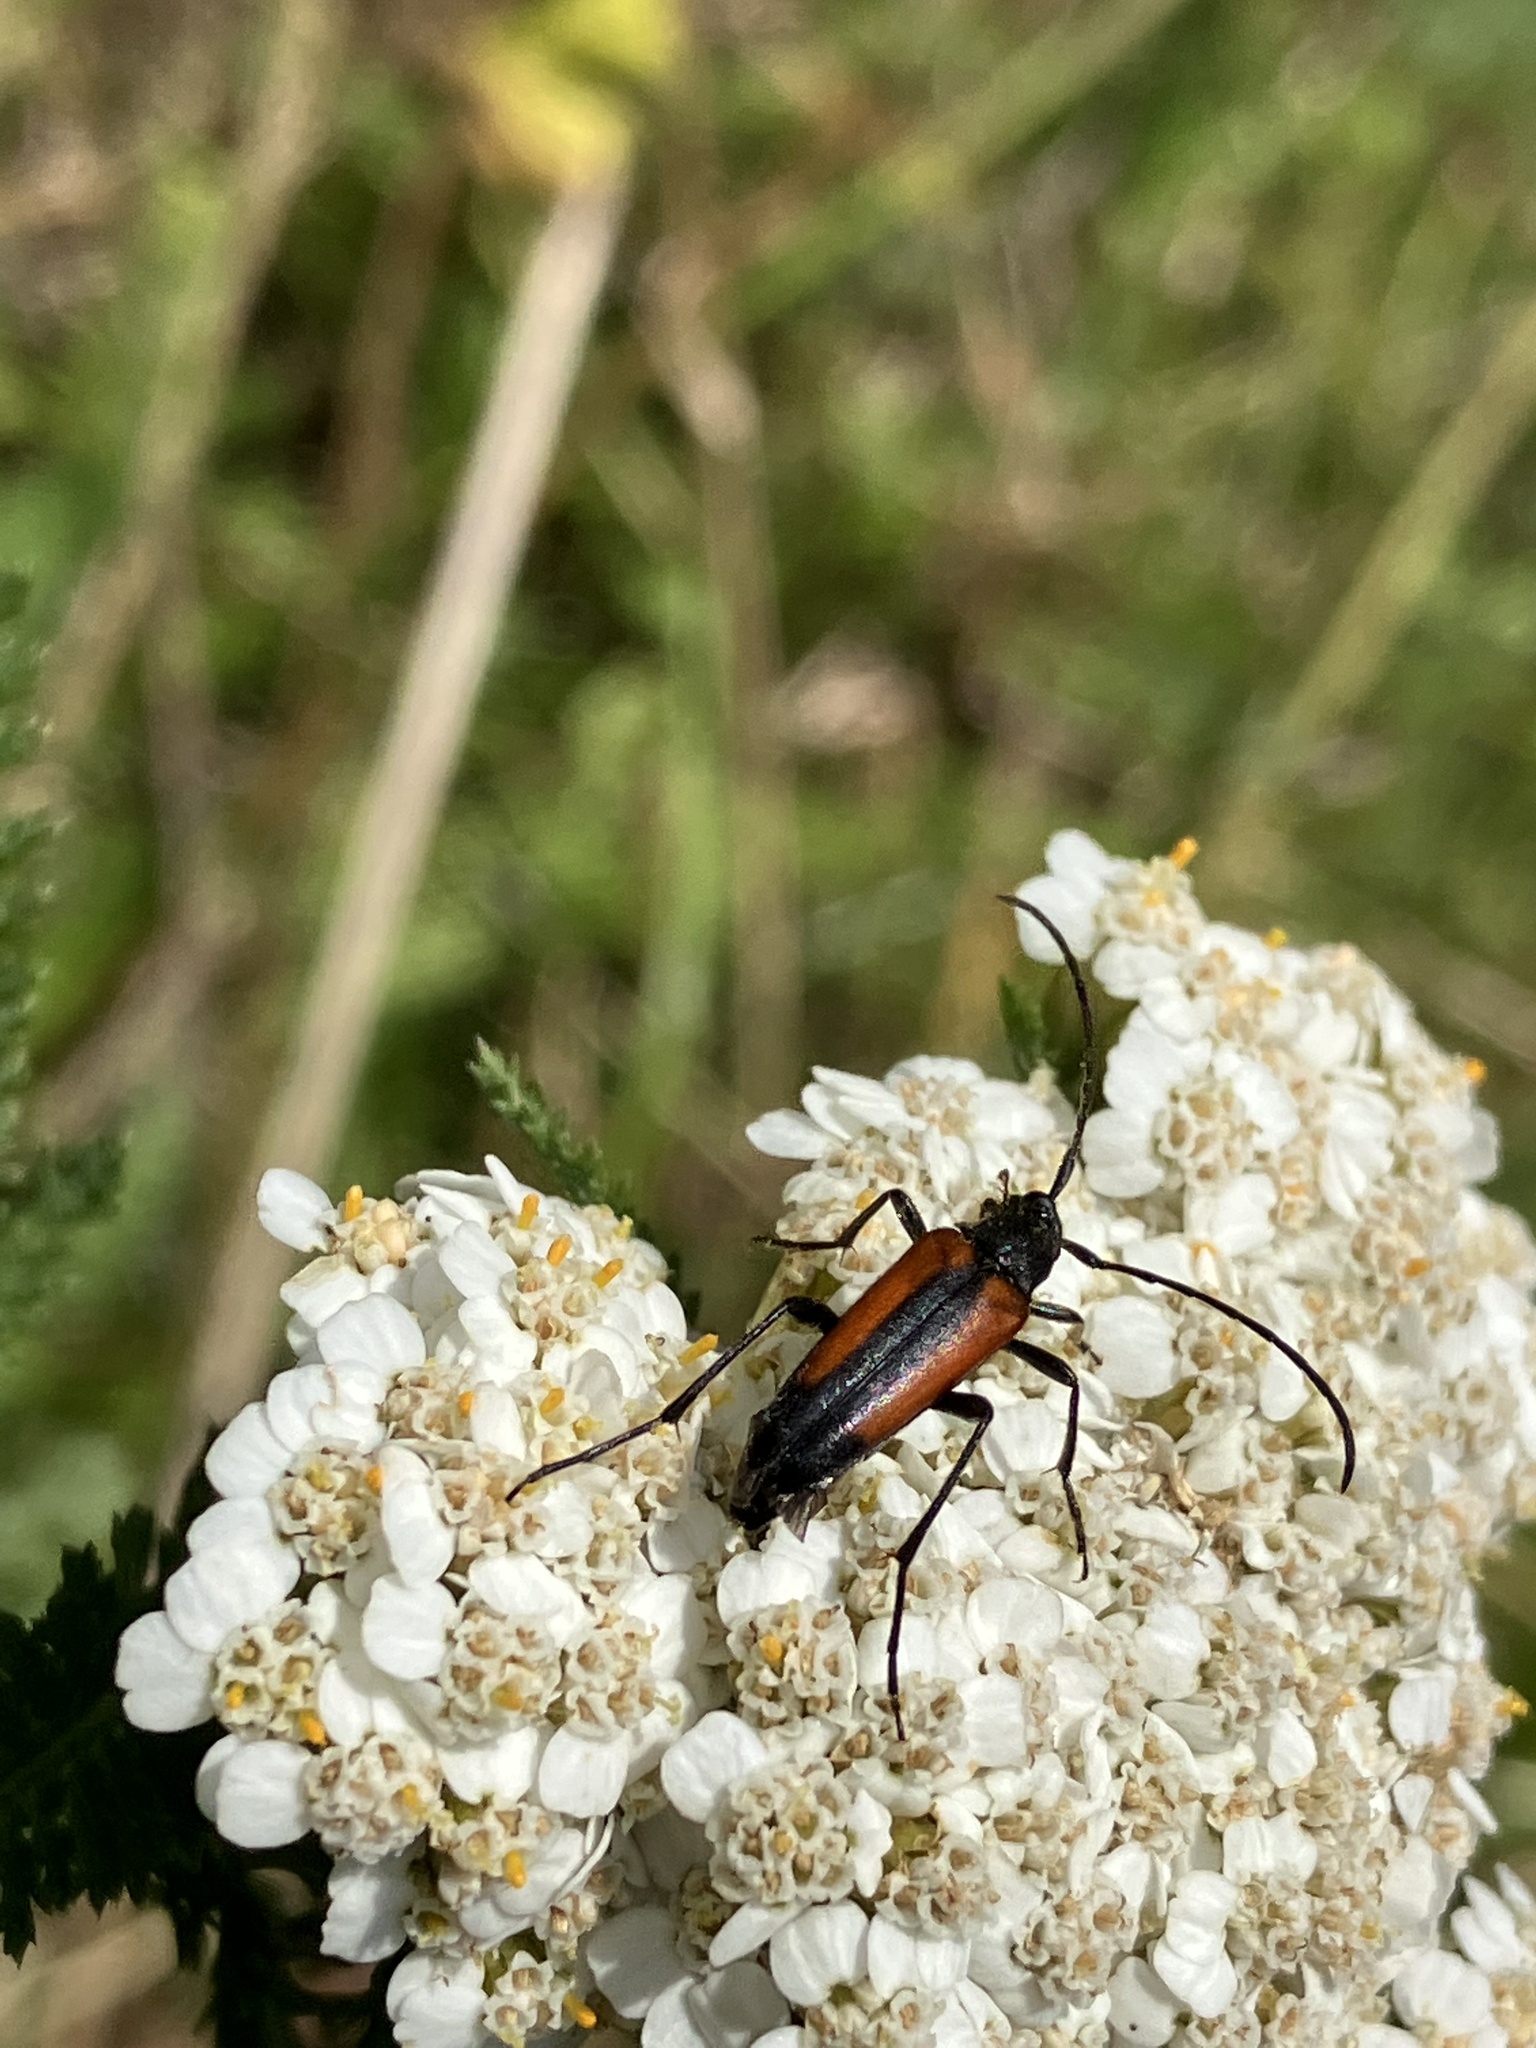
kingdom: Animalia
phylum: Arthropoda
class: Insecta
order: Coleoptera
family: Cerambycidae
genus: Stenurella
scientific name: Stenurella melanura
